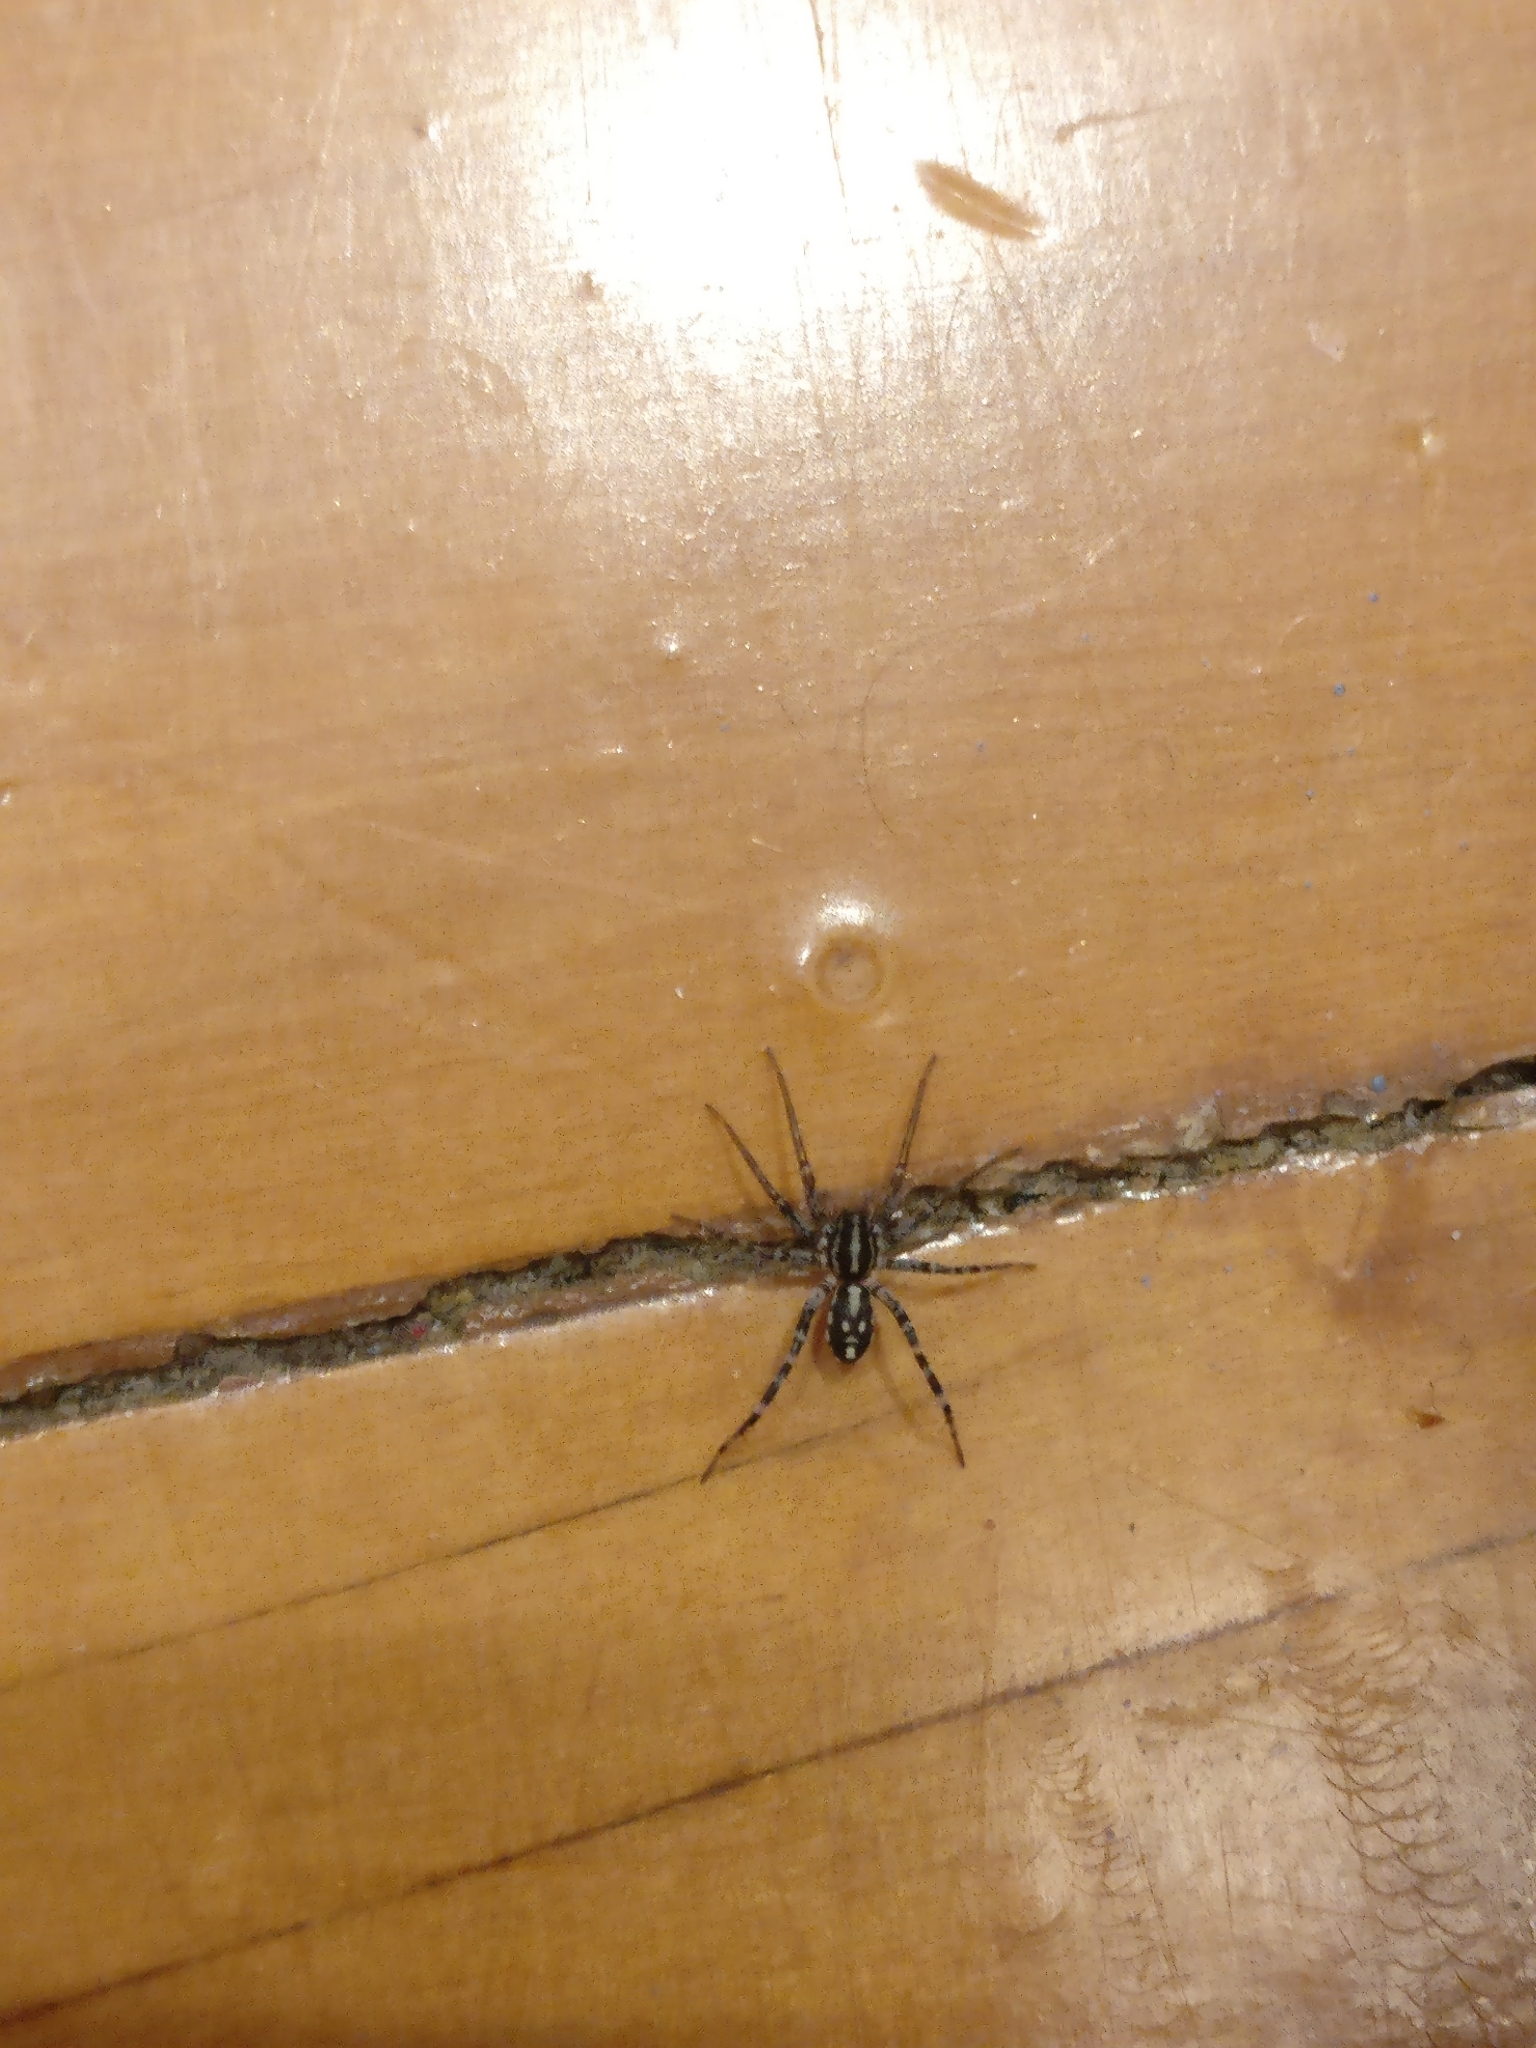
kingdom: Animalia
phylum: Arthropoda
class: Arachnida
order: Araneae
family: Corinnidae
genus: Nyssus
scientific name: Nyssus coloripes
